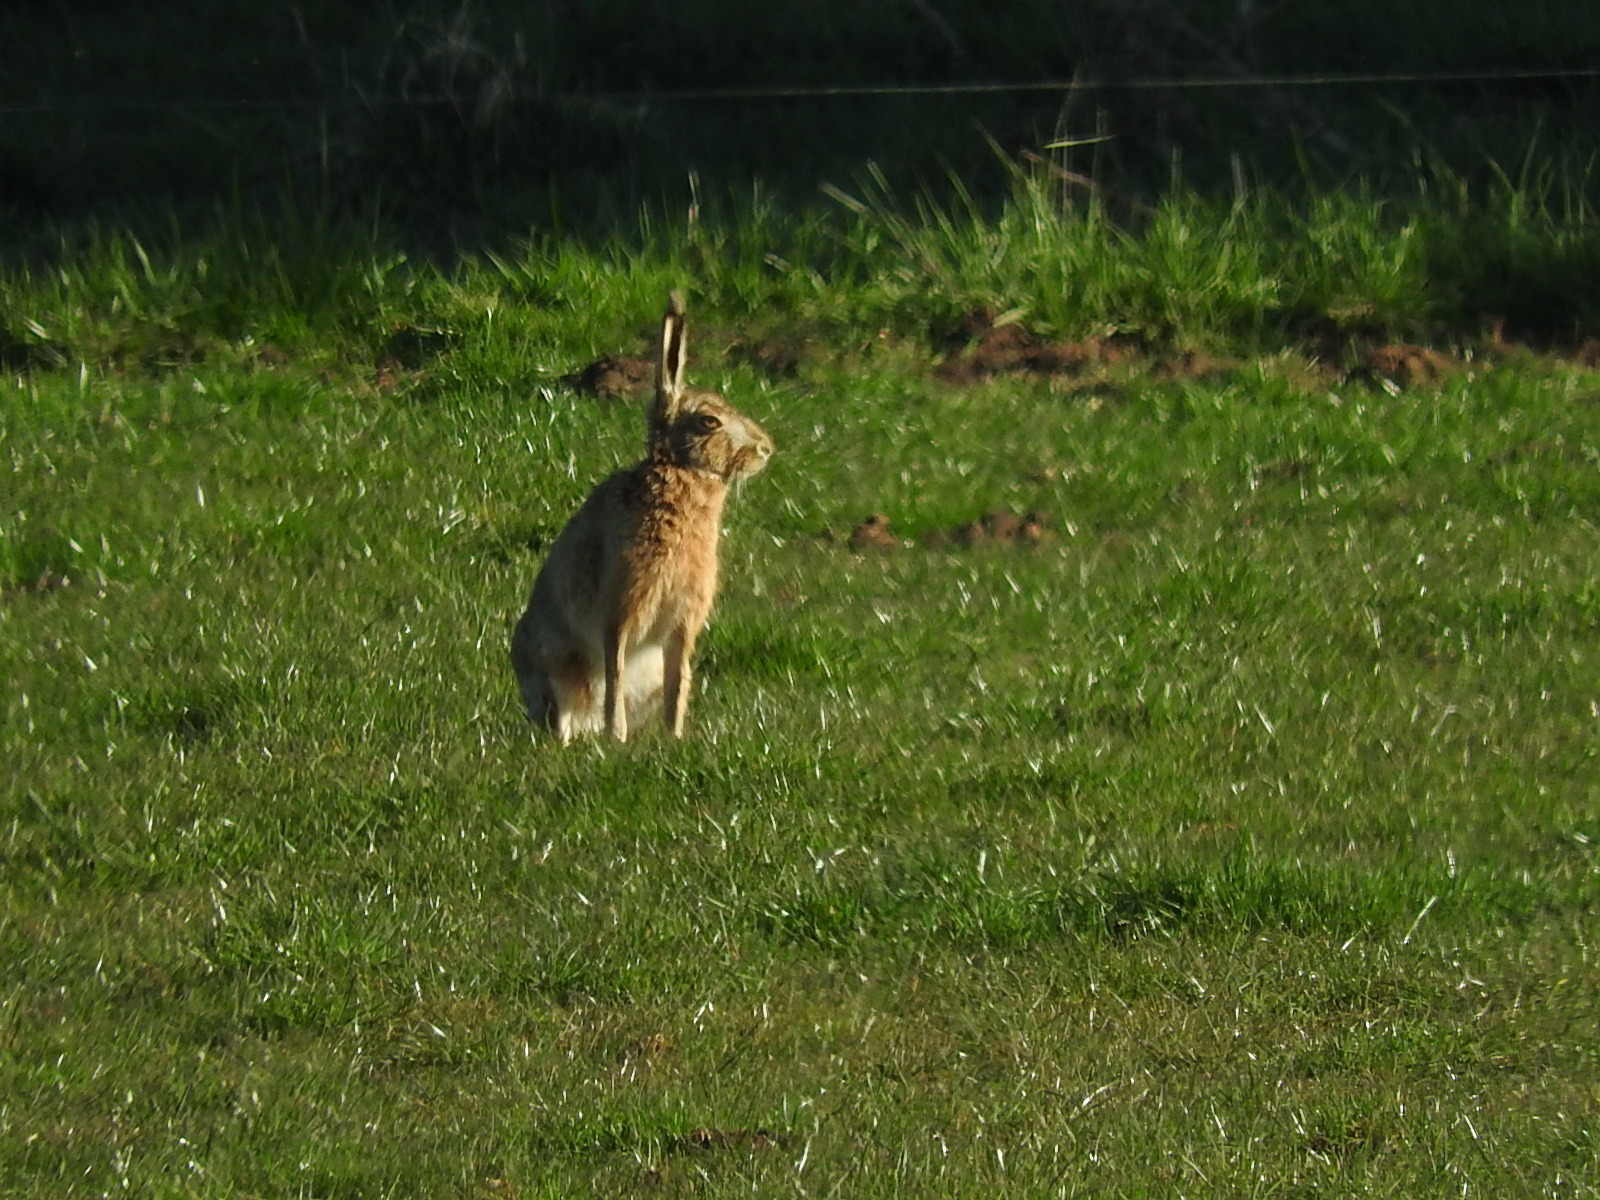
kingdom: Animalia
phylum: Chordata
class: Mammalia
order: Lagomorpha
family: Leporidae
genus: Lepus
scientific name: Lepus europaeus
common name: European hare
